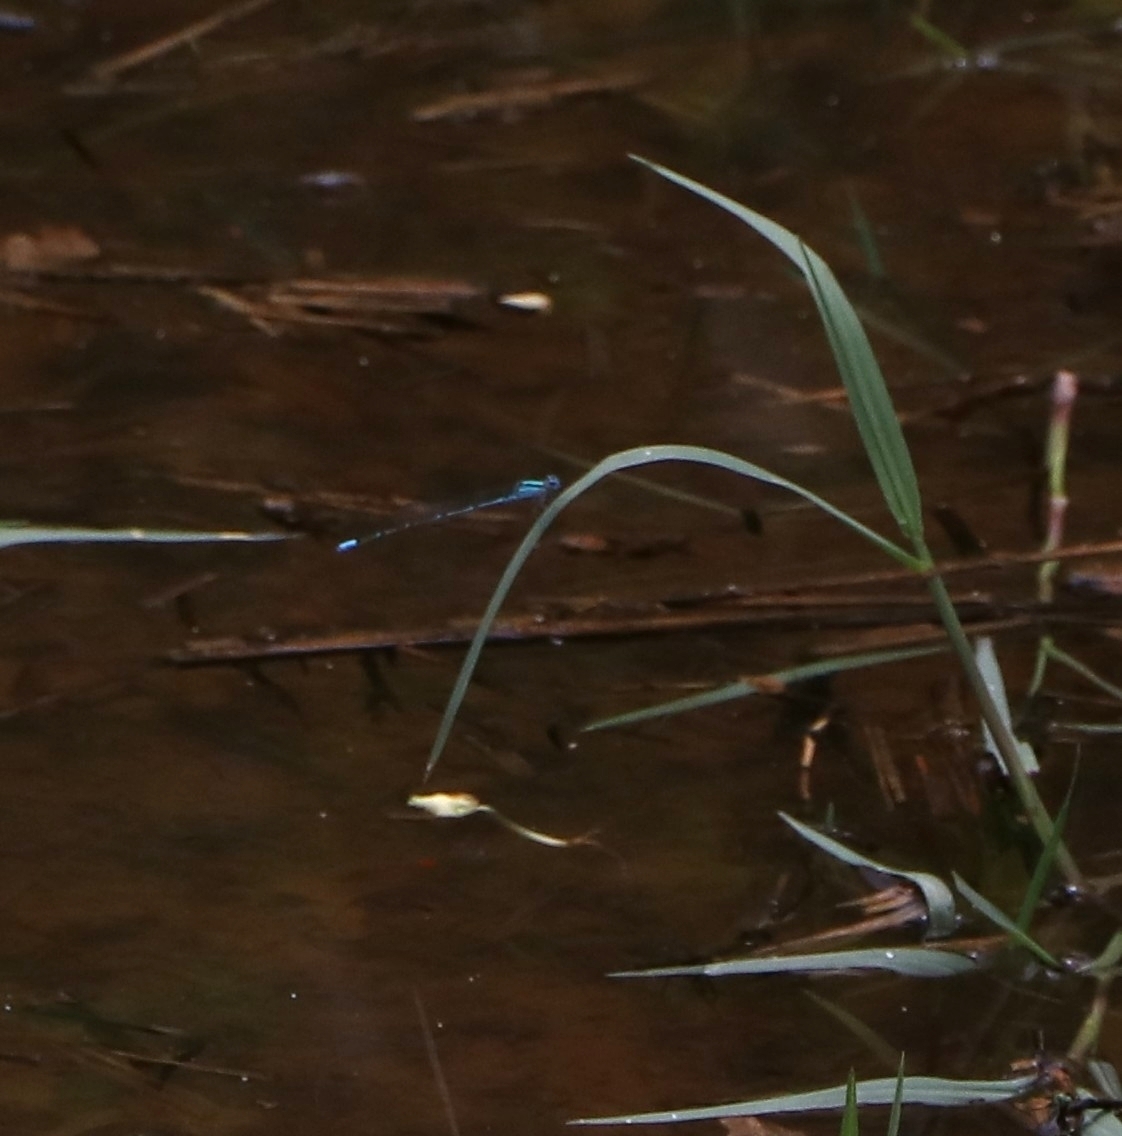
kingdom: Animalia
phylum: Arthropoda
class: Insecta
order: Odonata
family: Coenagrionidae
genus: Pseudagrion
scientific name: Pseudagrion microcephalum
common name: Blue riverdamsel
